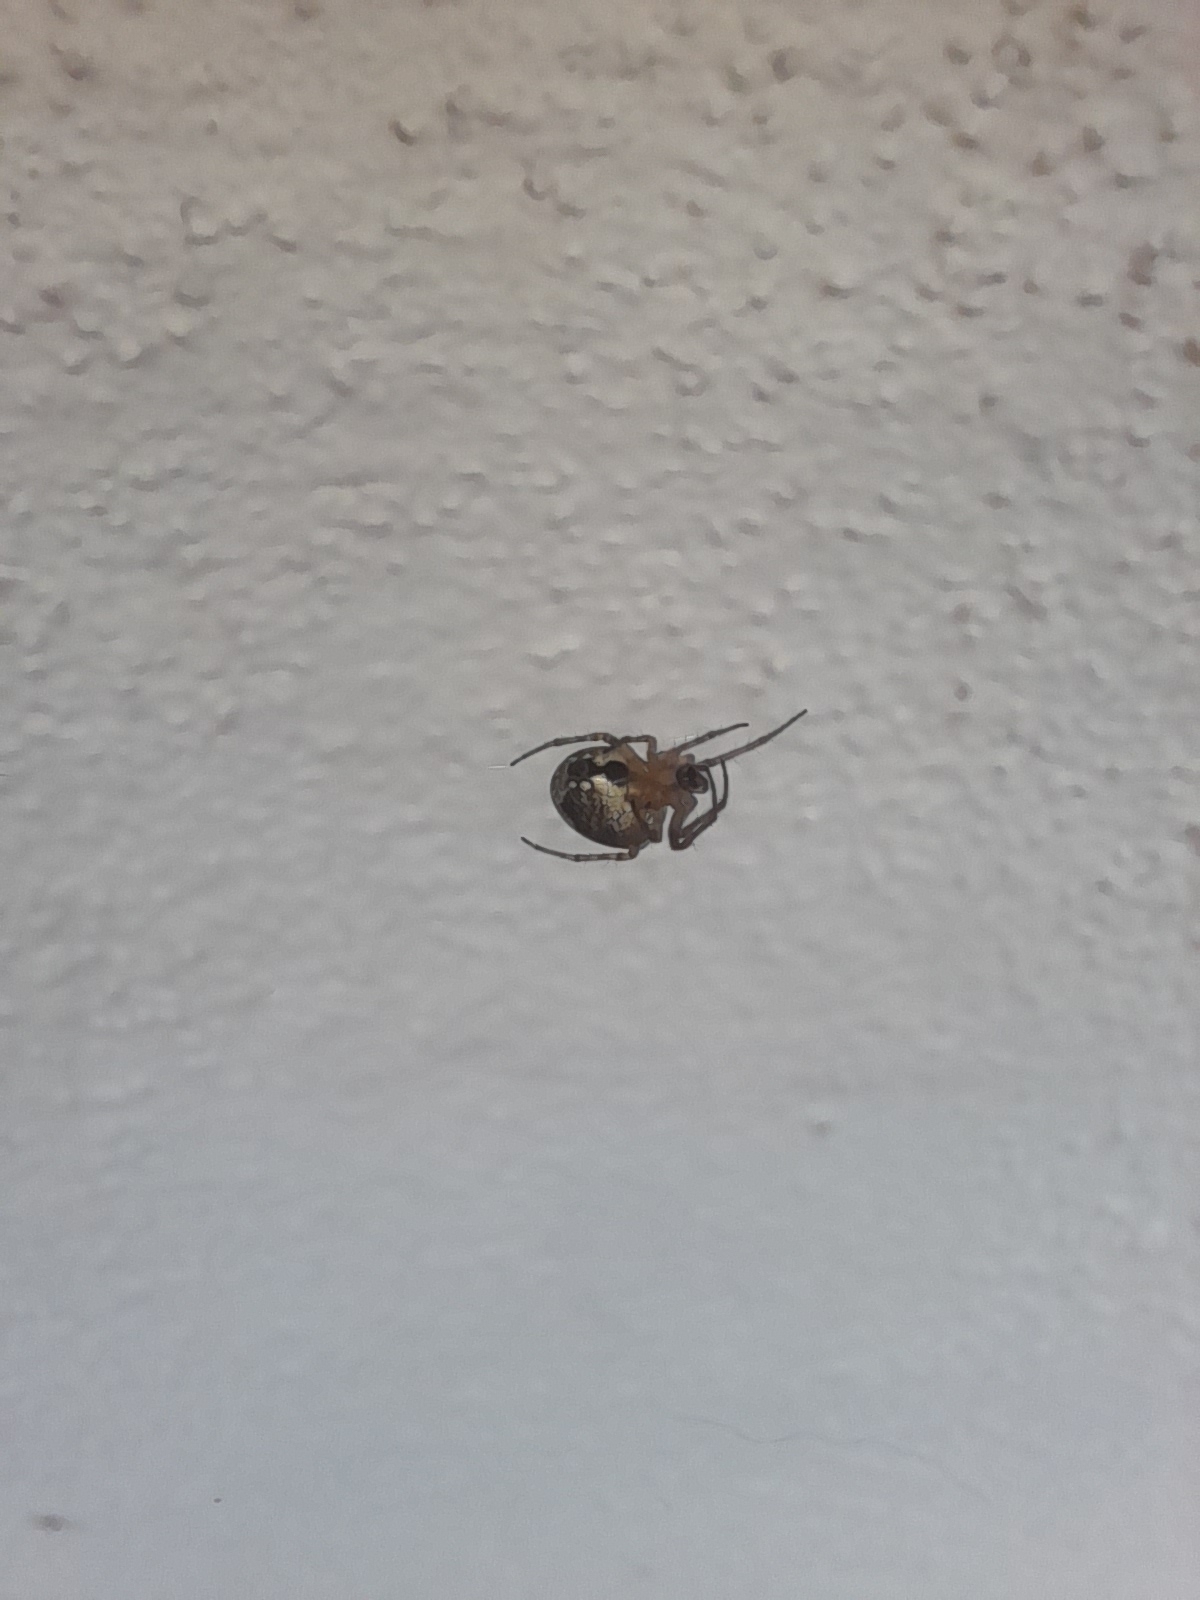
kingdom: Animalia
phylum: Arthropoda
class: Arachnida
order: Araneae
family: Araneidae
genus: Zilla
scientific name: Zilla diodia
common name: Zilla diodia
